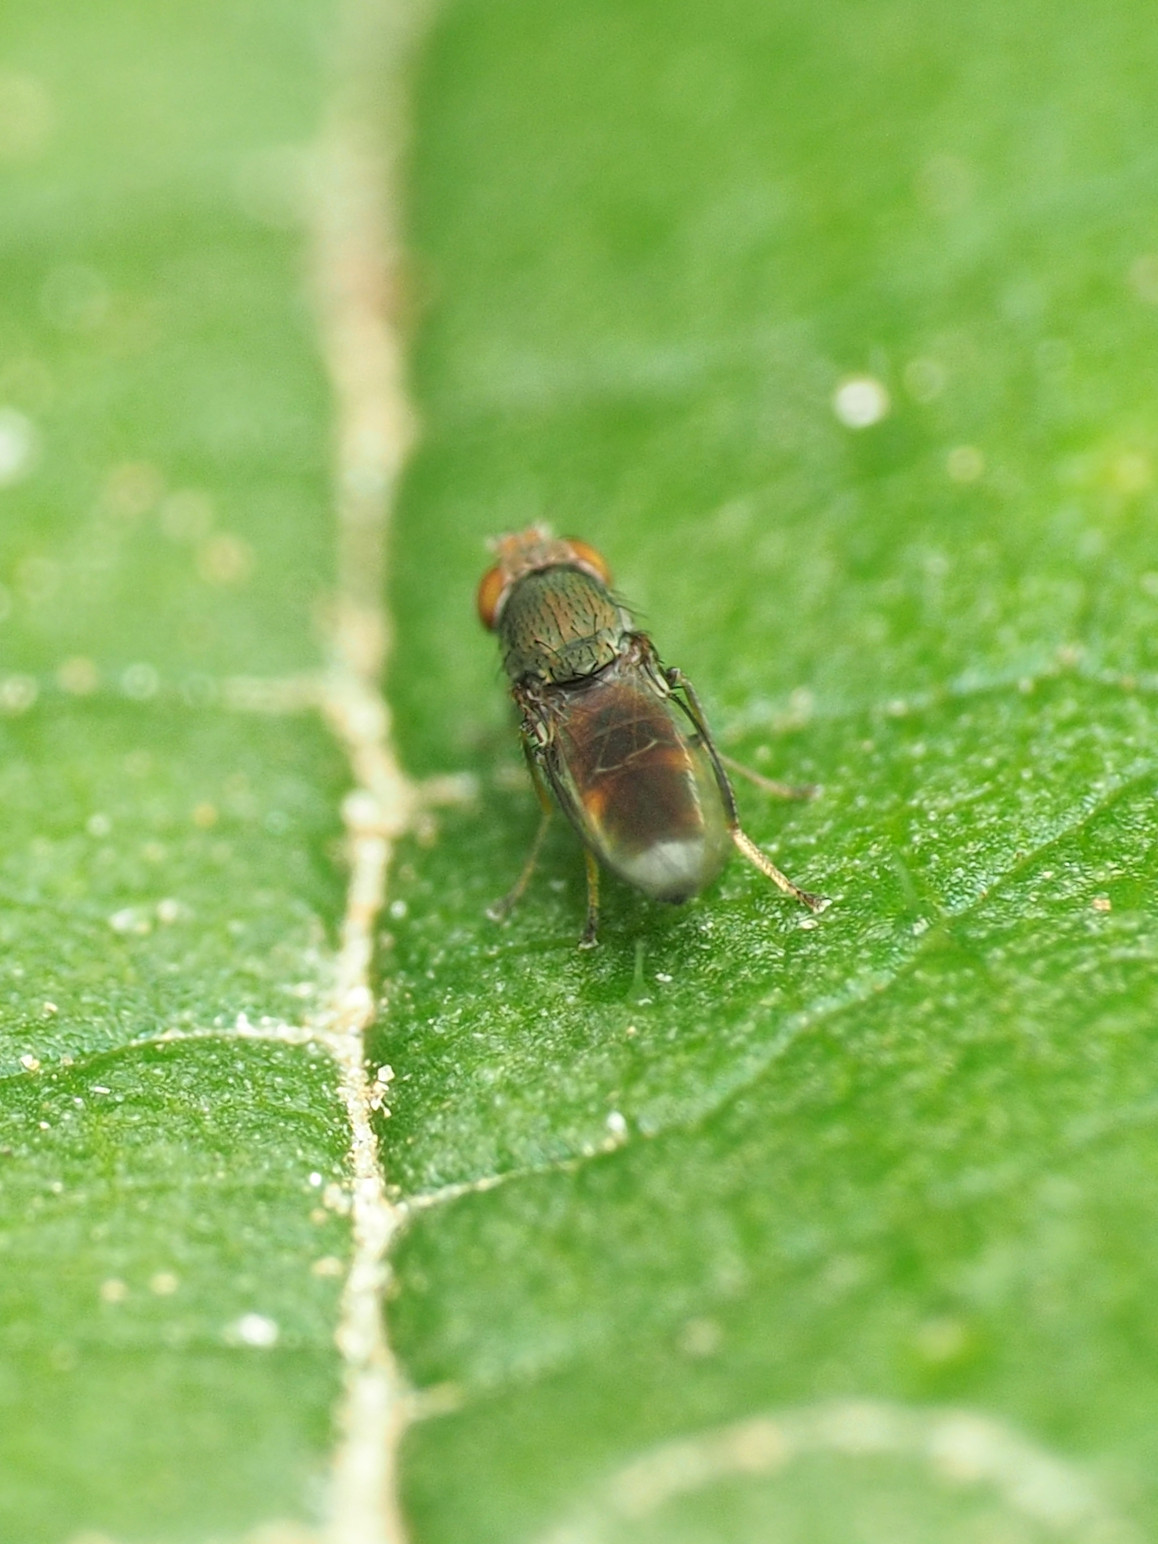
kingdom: Animalia
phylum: Arthropoda
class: Insecta
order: Diptera
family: Ephydridae
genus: Aquachasma
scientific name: Aquachasma leucoproctum
